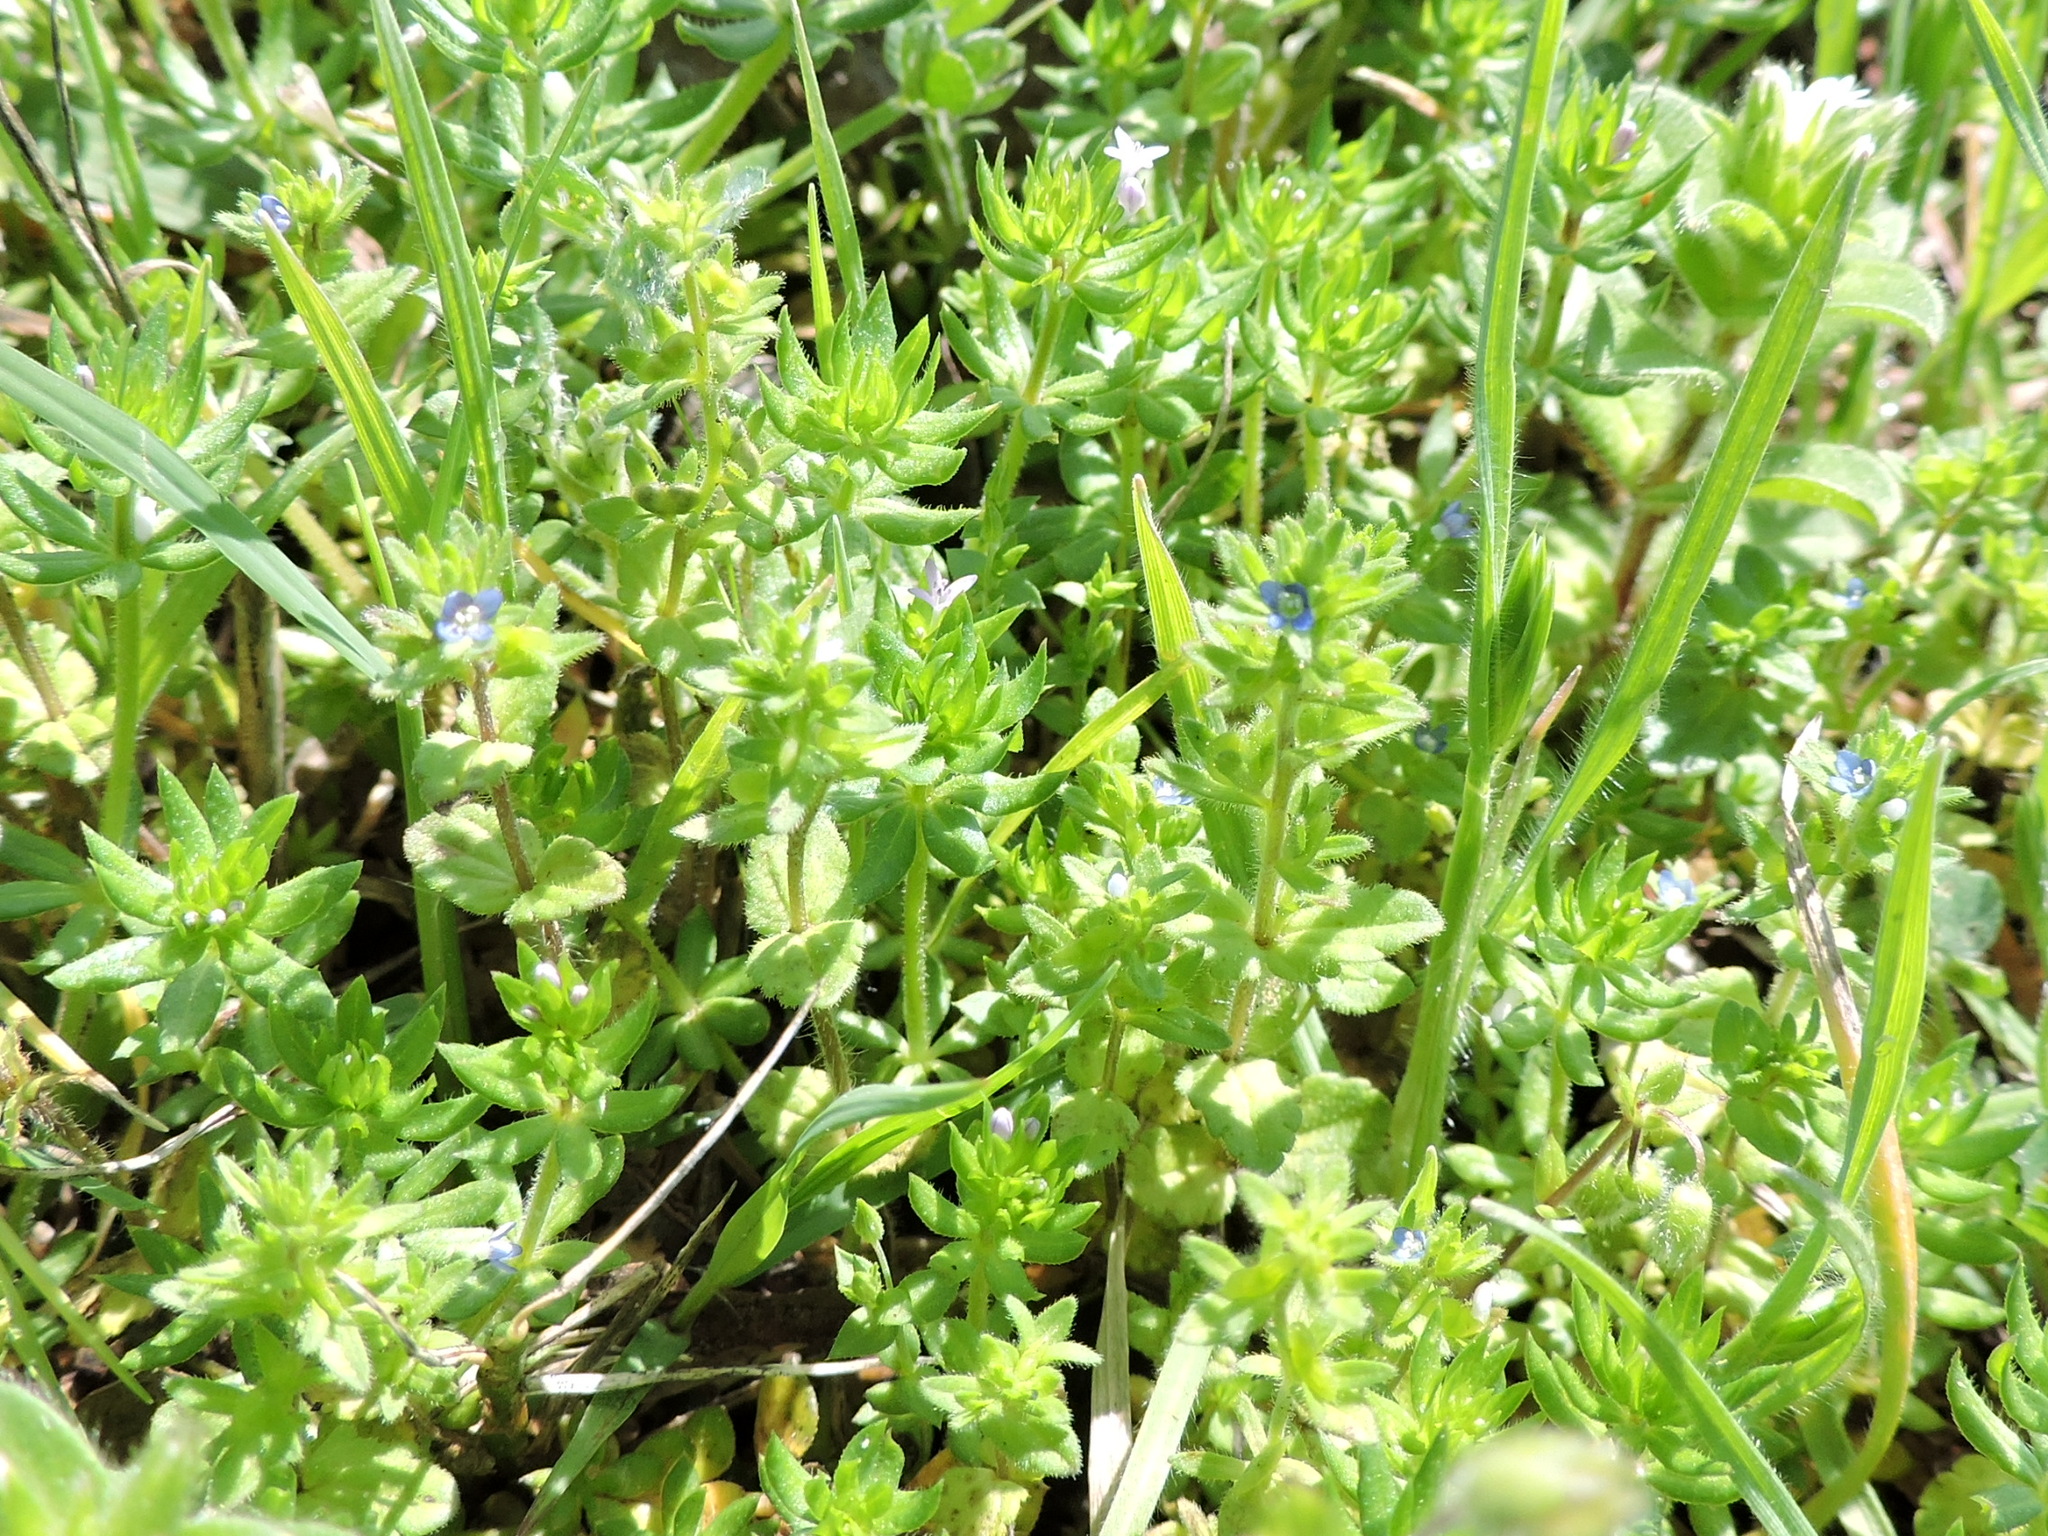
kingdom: Plantae
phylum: Tracheophyta
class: Magnoliopsida
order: Lamiales
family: Plantaginaceae
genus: Veronica
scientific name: Veronica arvensis
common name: Corn speedwell
